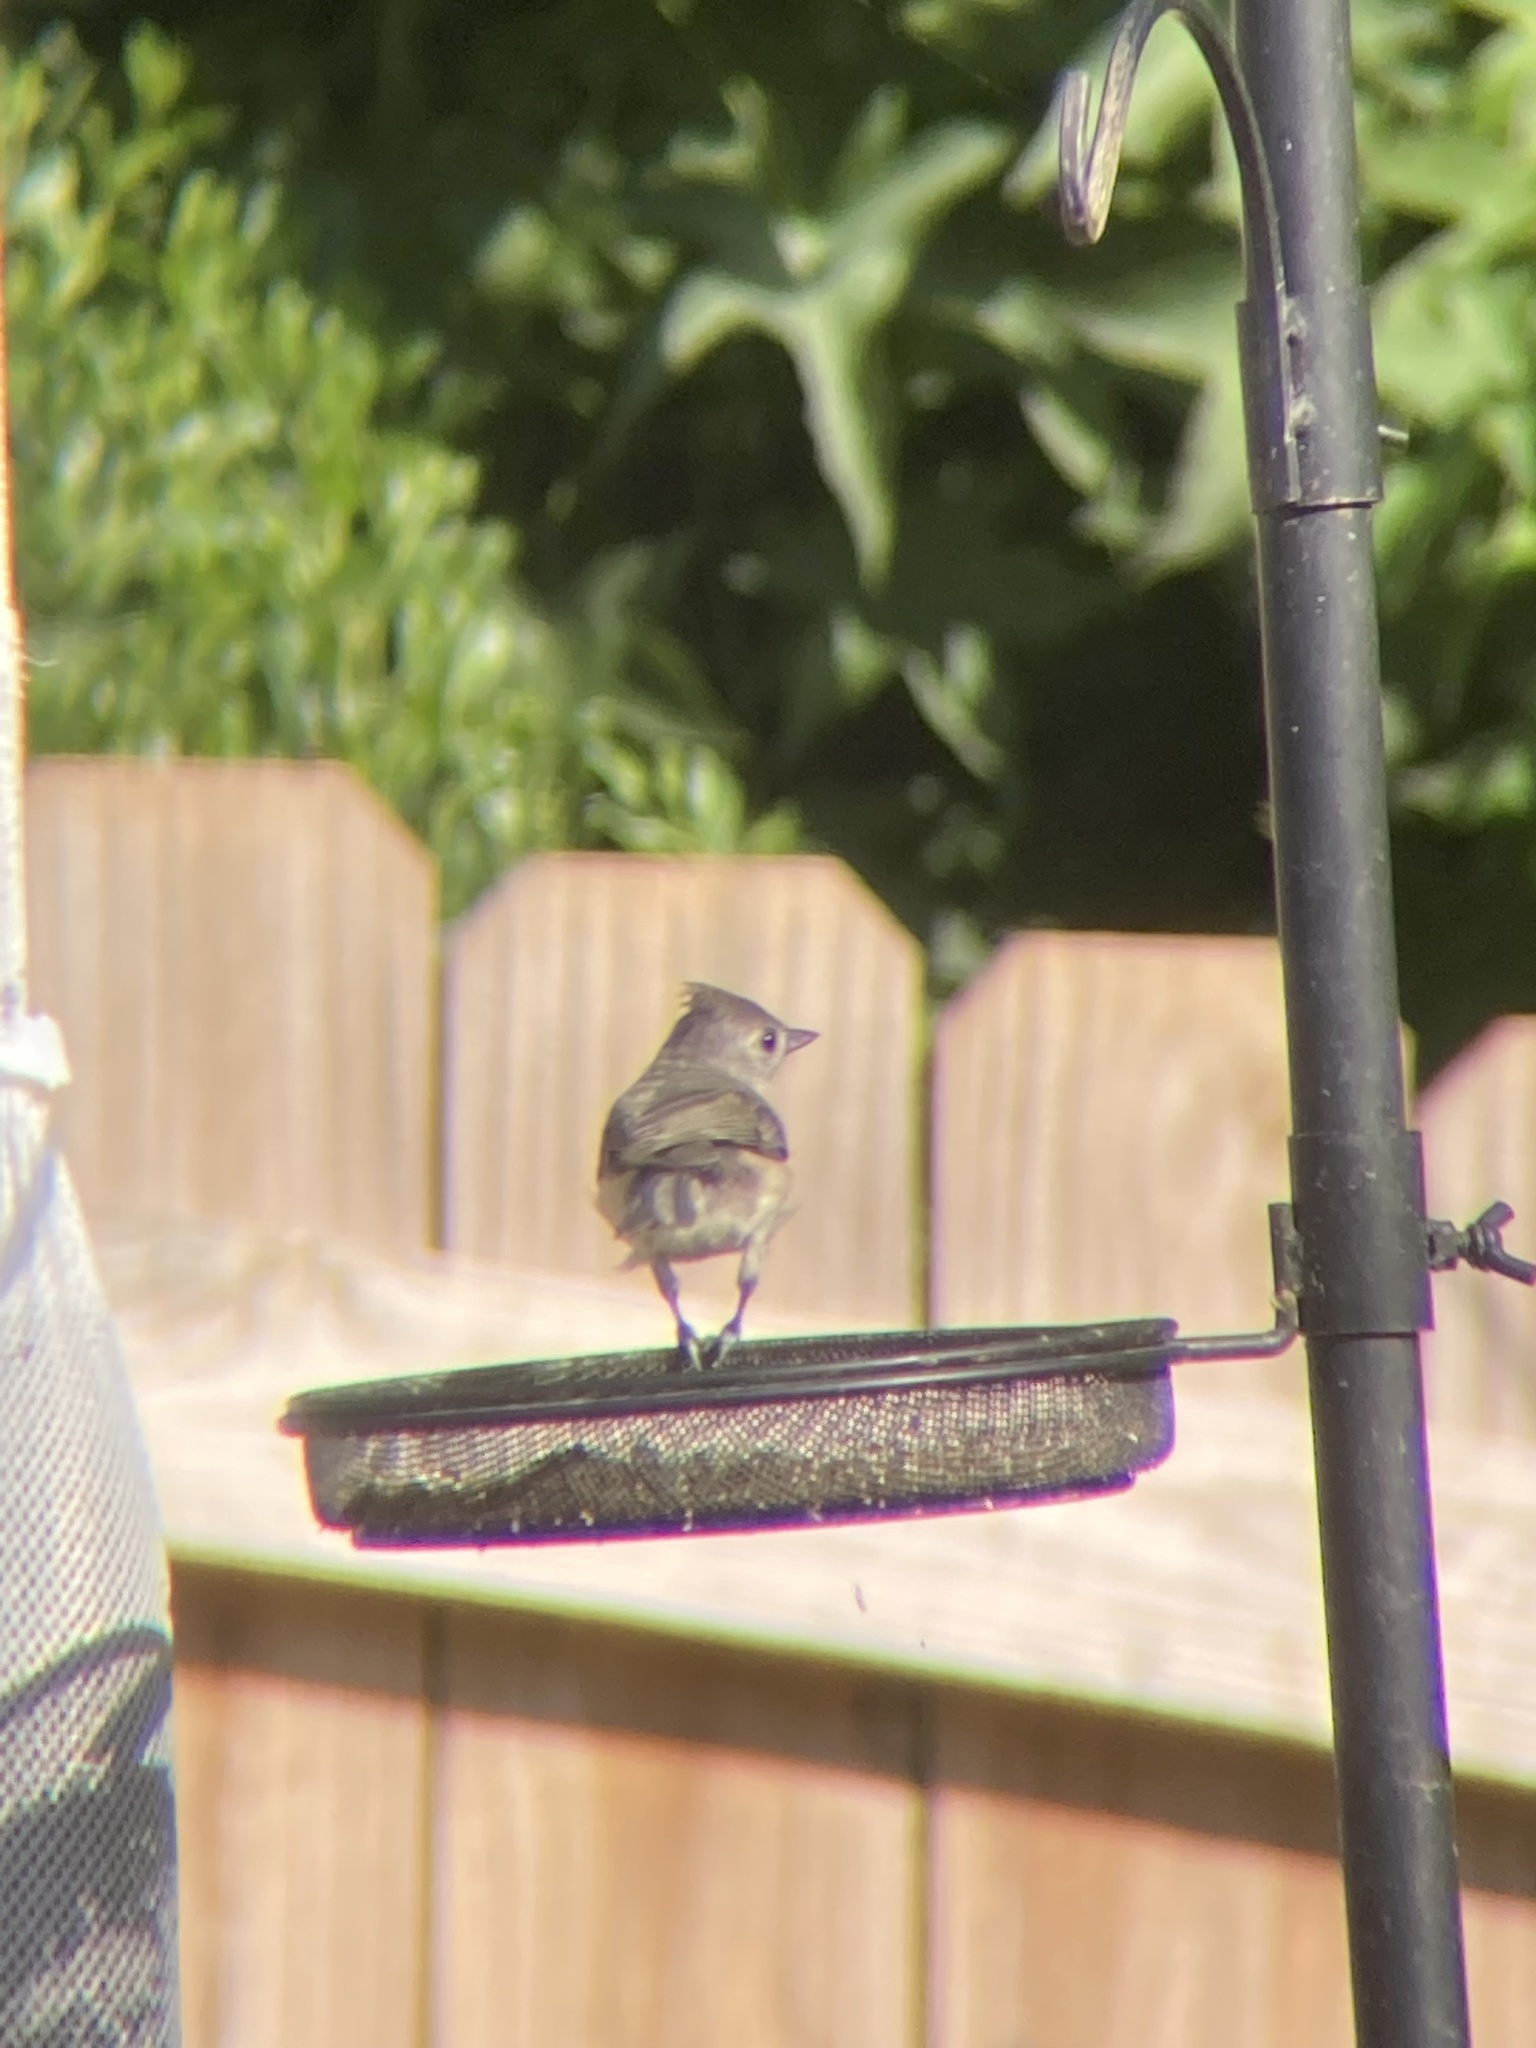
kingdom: Animalia
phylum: Chordata
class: Aves
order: Passeriformes
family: Paridae
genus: Baeolophus
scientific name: Baeolophus bicolor
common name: Tufted titmouse
